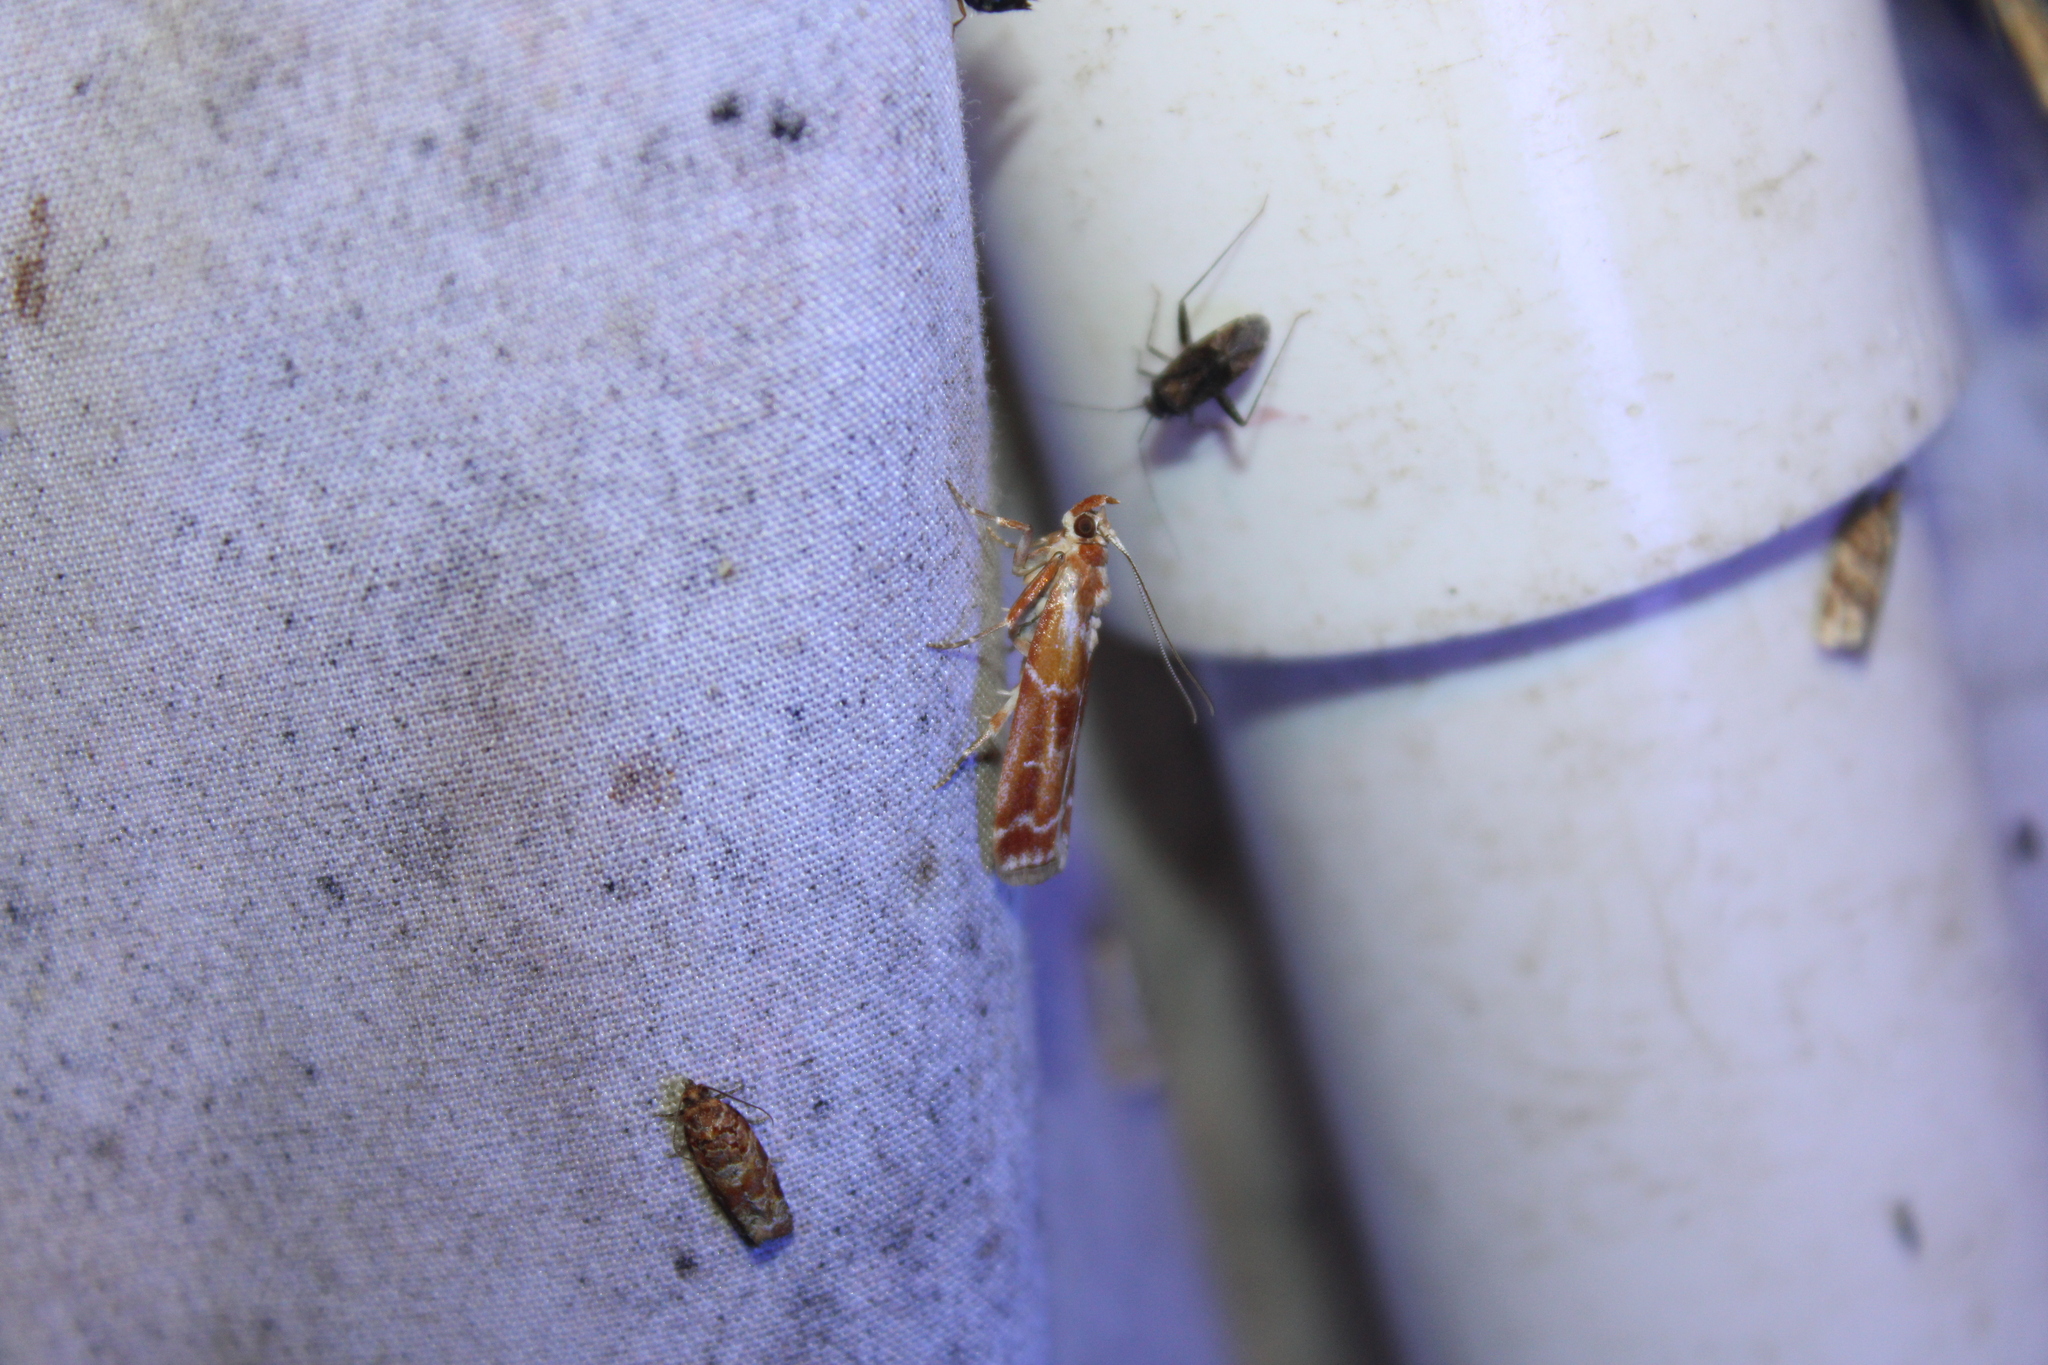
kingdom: Animalia
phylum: Arthropoda
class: Insecta
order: Lepidoptera
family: Pyralidae
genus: Dioryctria
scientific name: Dioryctria disclusa
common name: Rusty pine cone moth
